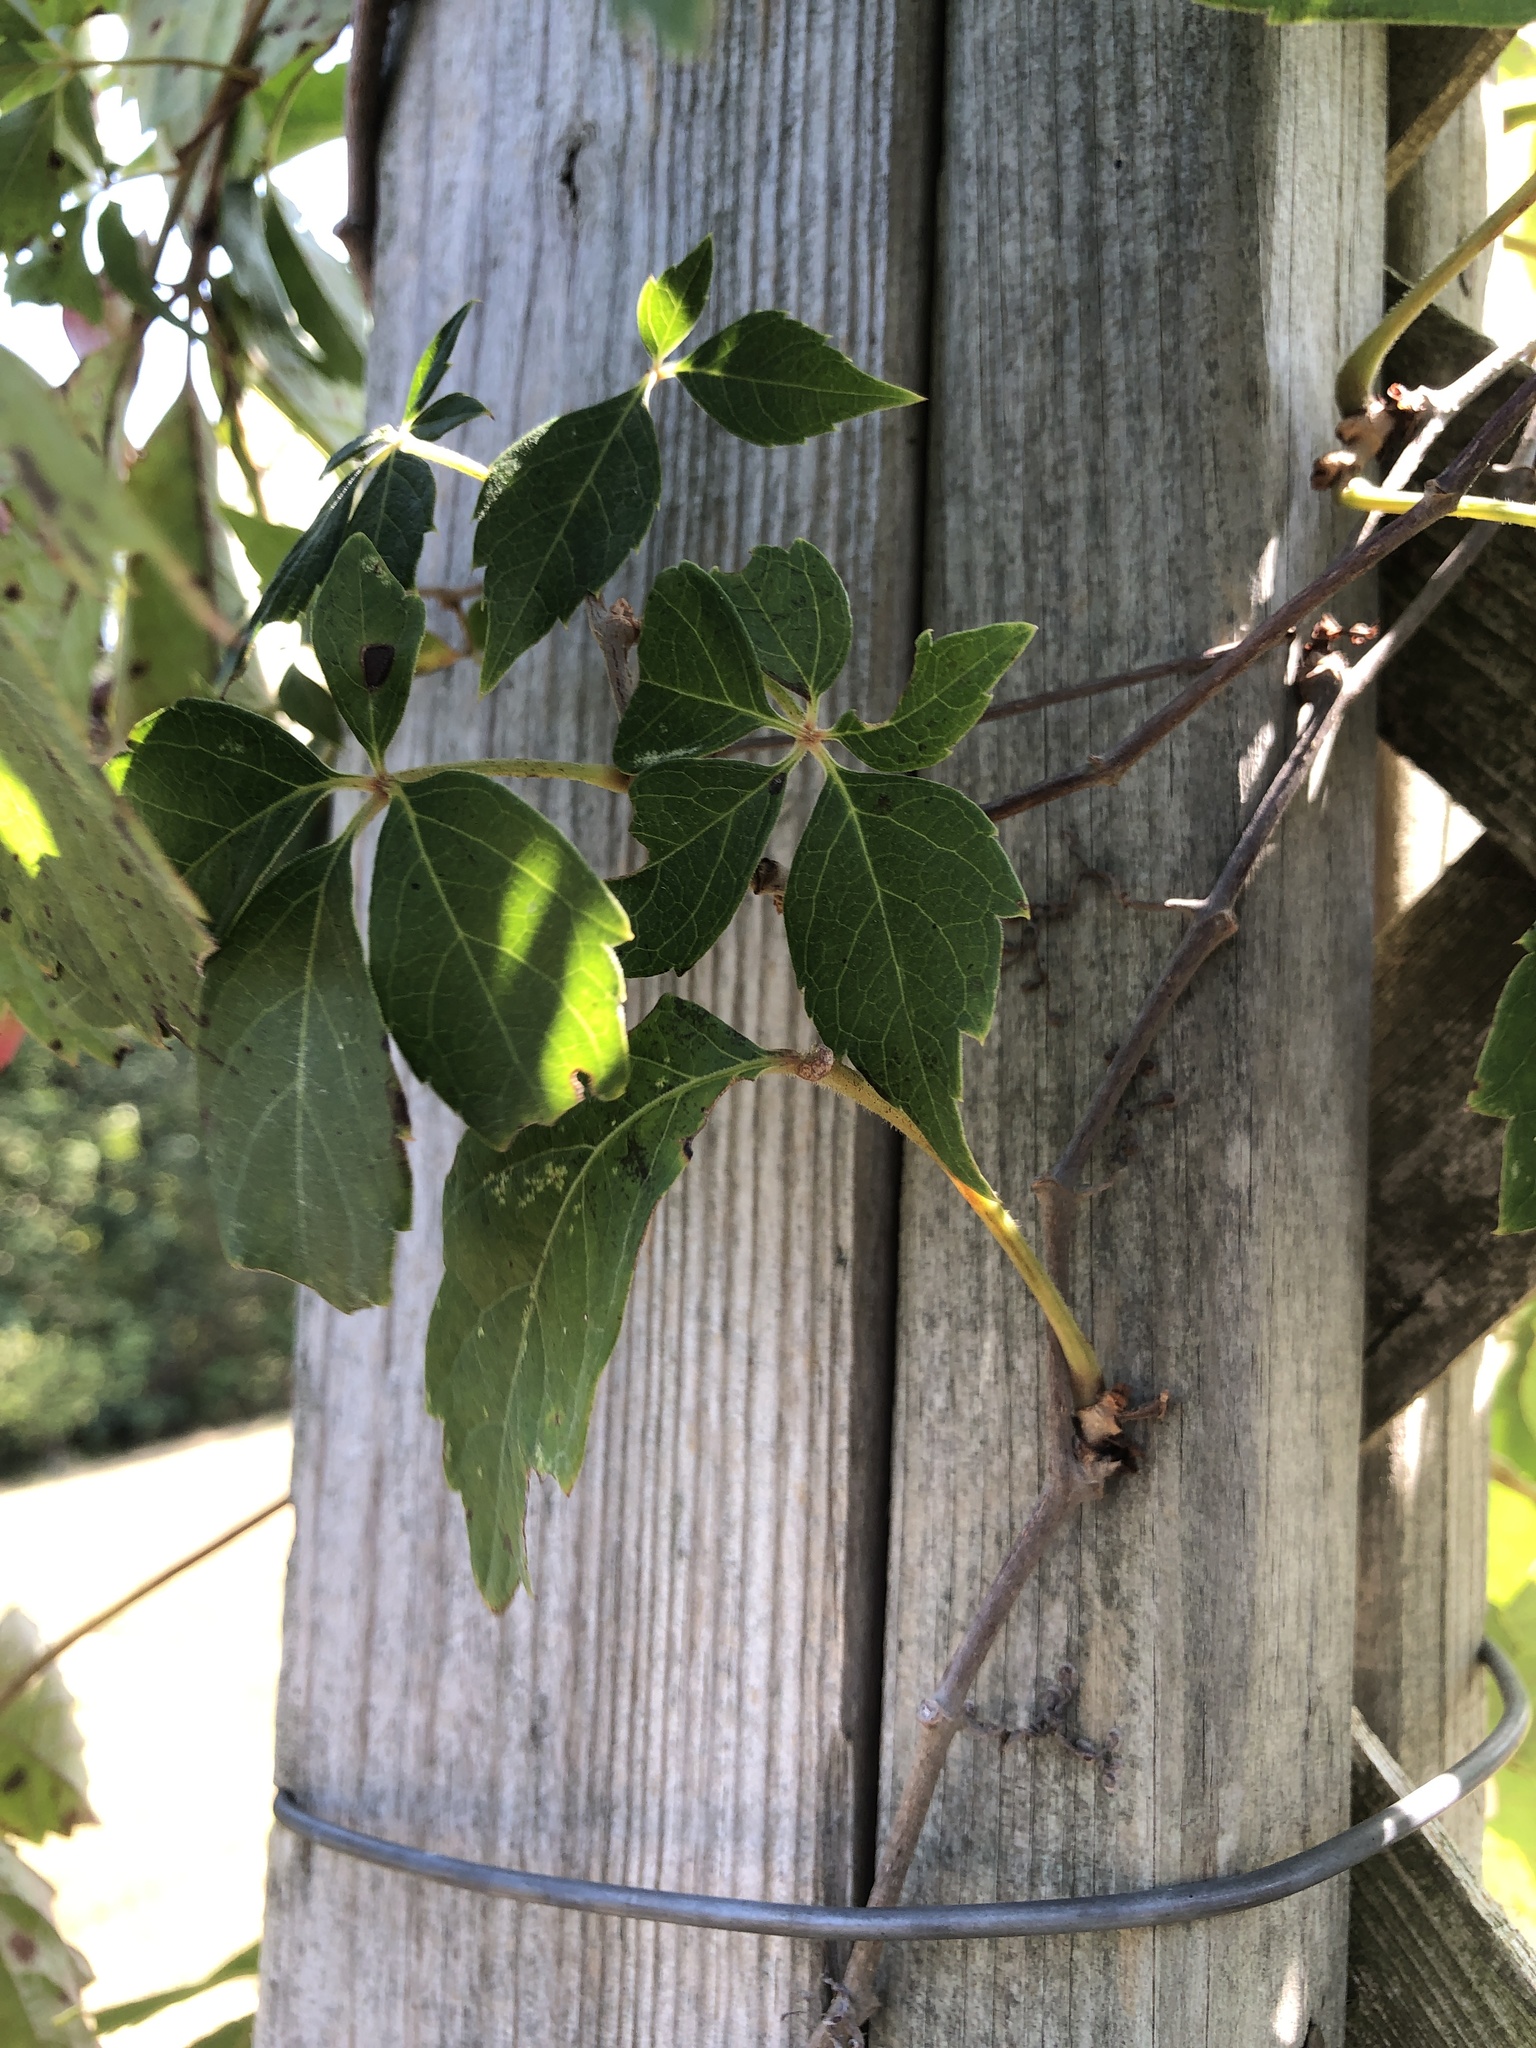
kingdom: Plantae
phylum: Tracheophyta
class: Magnoliopsida
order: Vitales
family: Vitaceae
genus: Parthenocissus
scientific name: Parthenocissus quinquefolia
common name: Virginia-creeper
